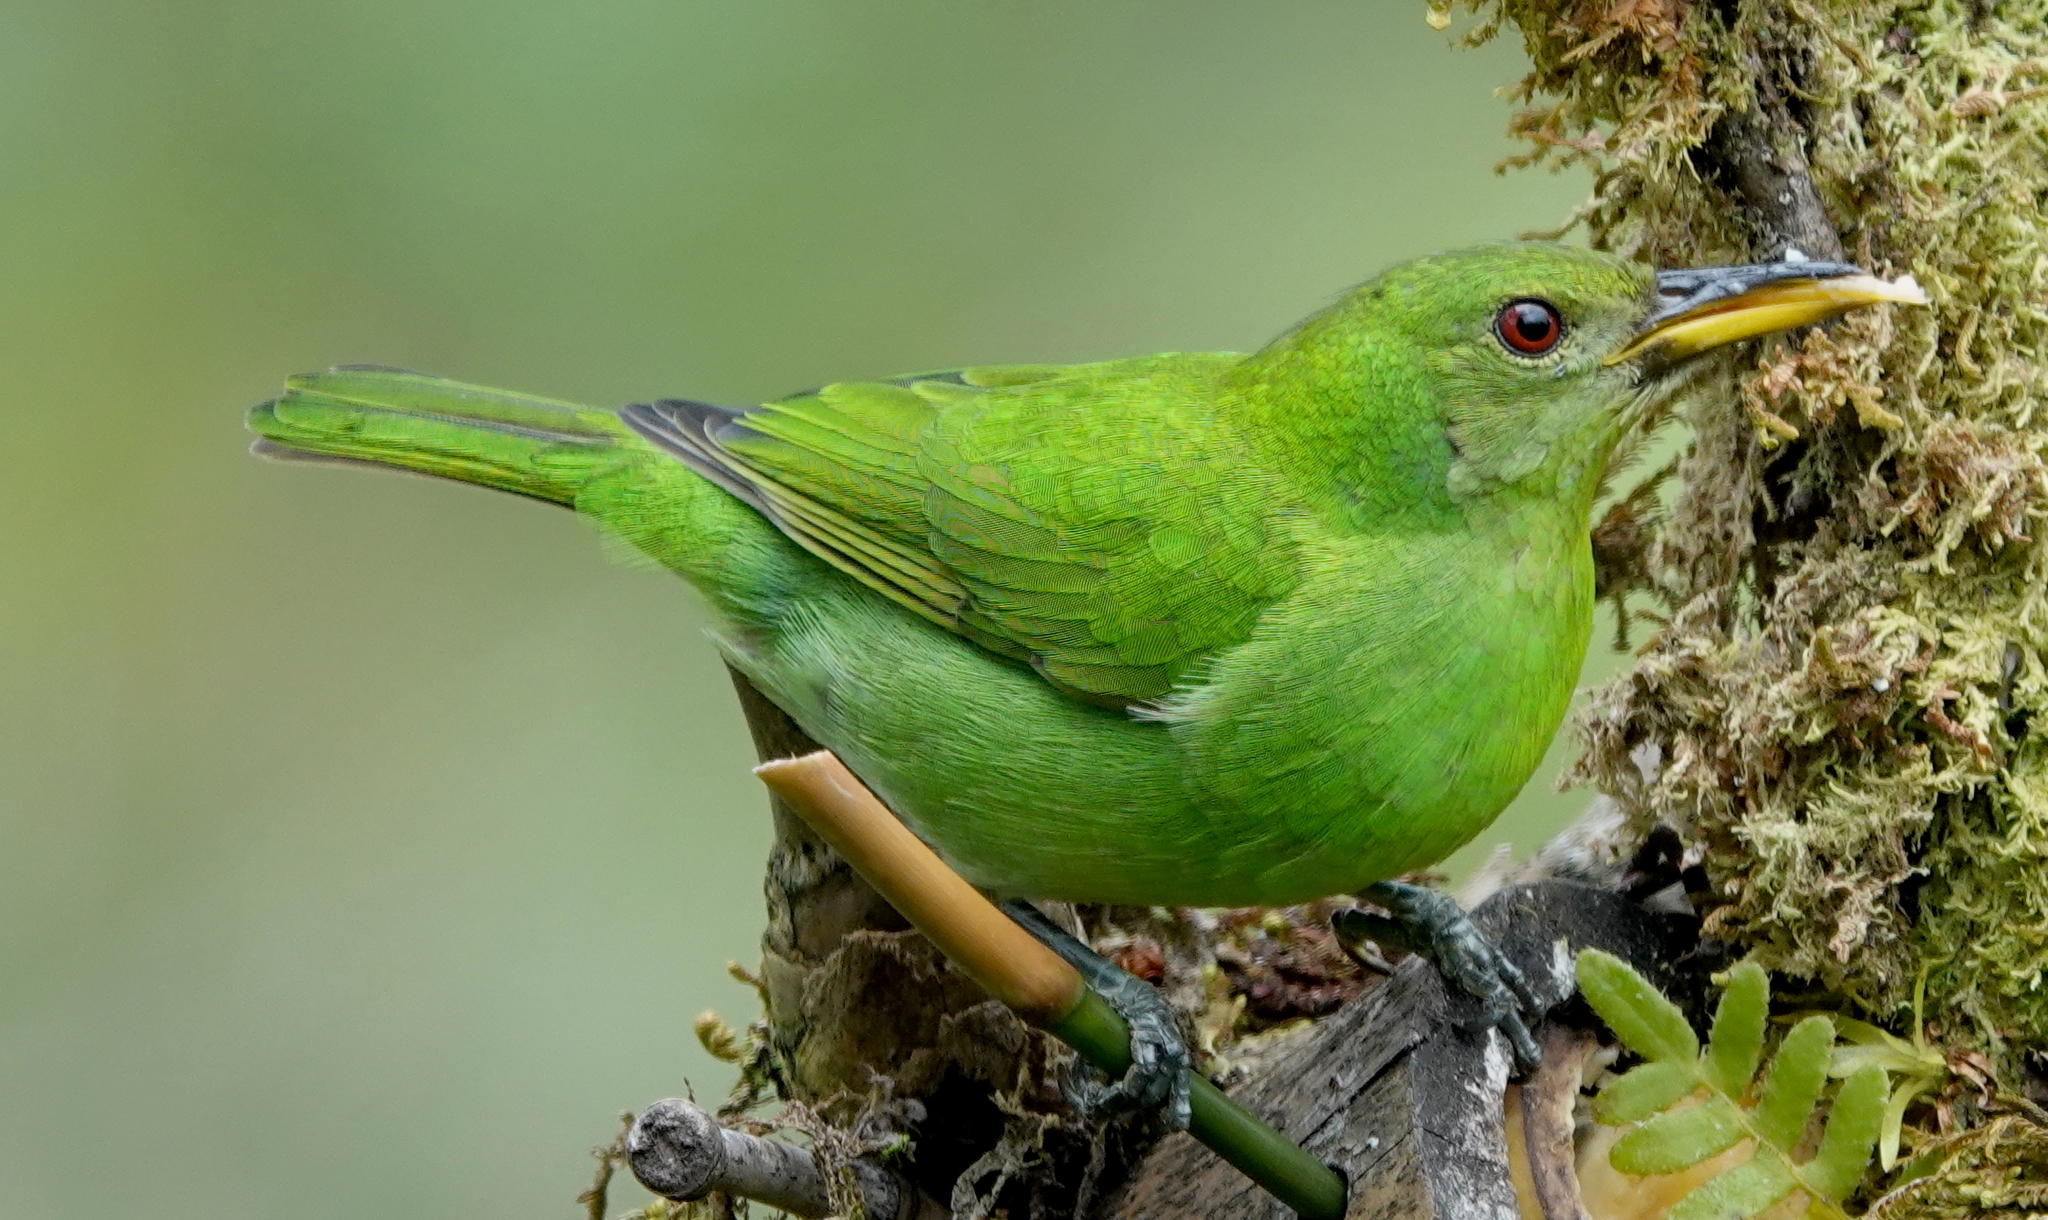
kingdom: Animalia
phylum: Chordata
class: Aves
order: Passeriformes
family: Thraupidae
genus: Chlorophanes
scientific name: Chlorophanes spiza
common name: Green honeycreeper
